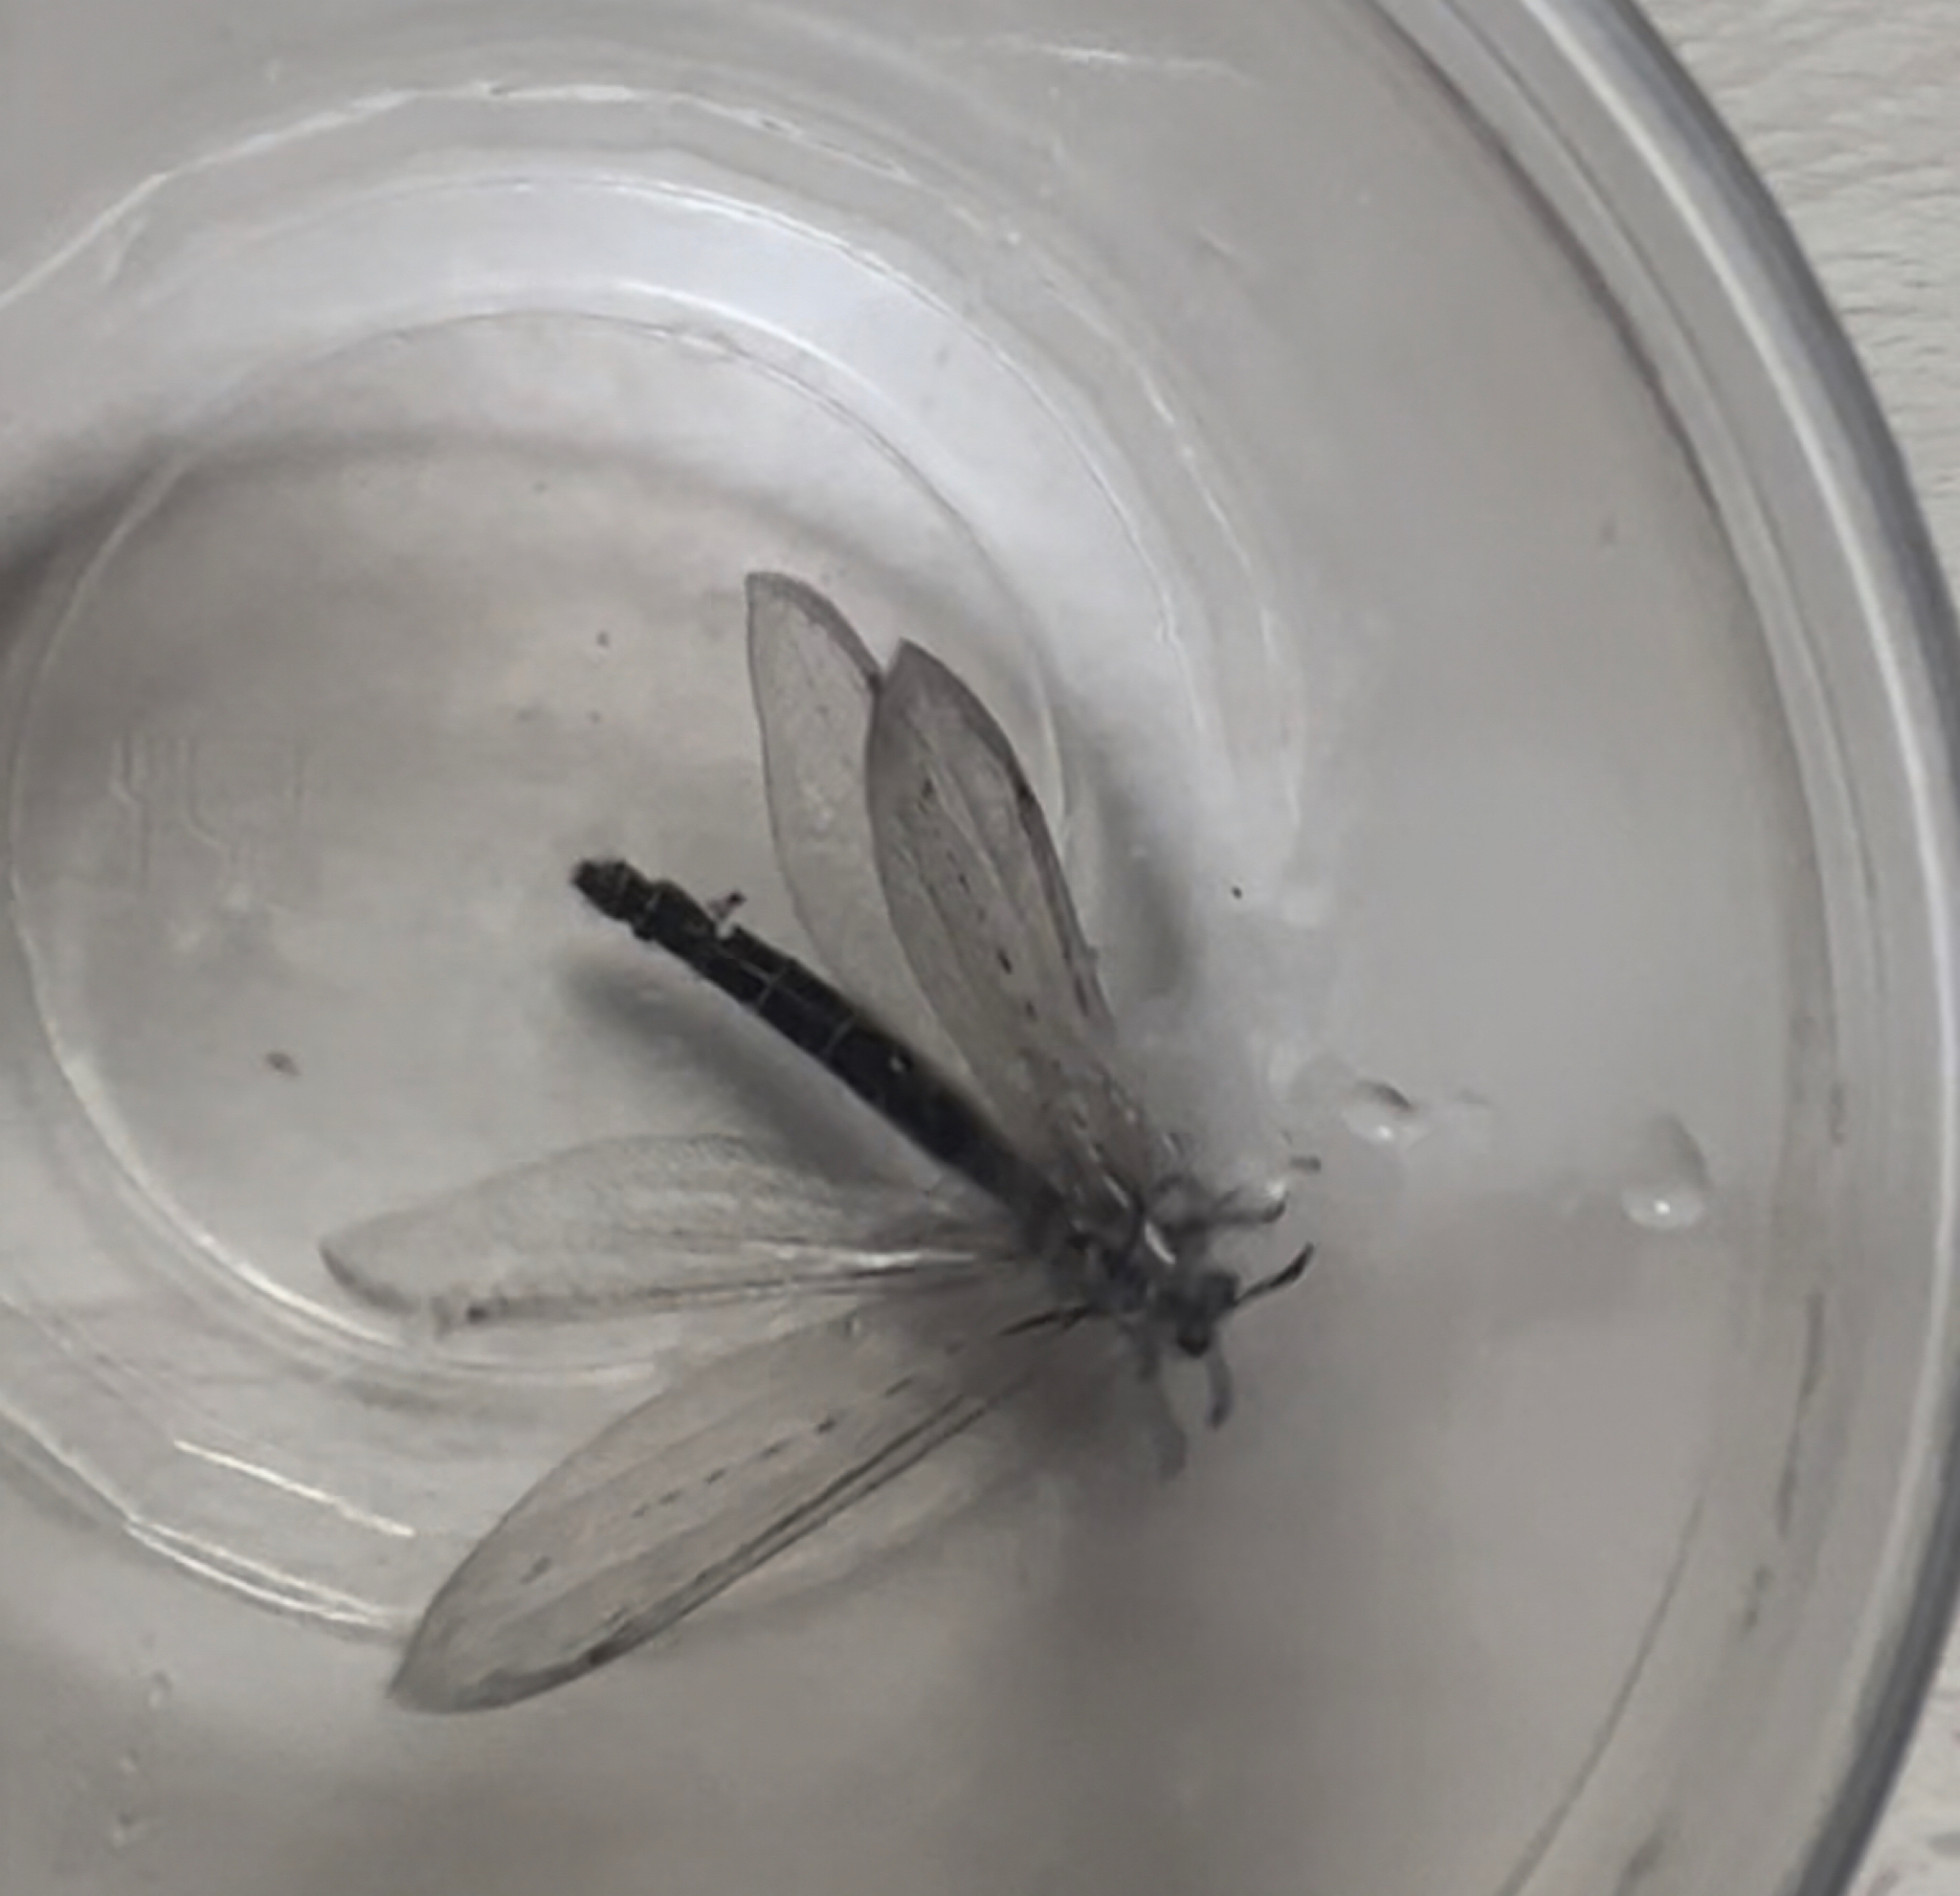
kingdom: Animalia
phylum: Arthropoda
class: Insecta
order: Neuroptera
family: Myrmeleontidae
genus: Myrmeleon
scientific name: Myrmeleon formicarius
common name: Ant-lion
